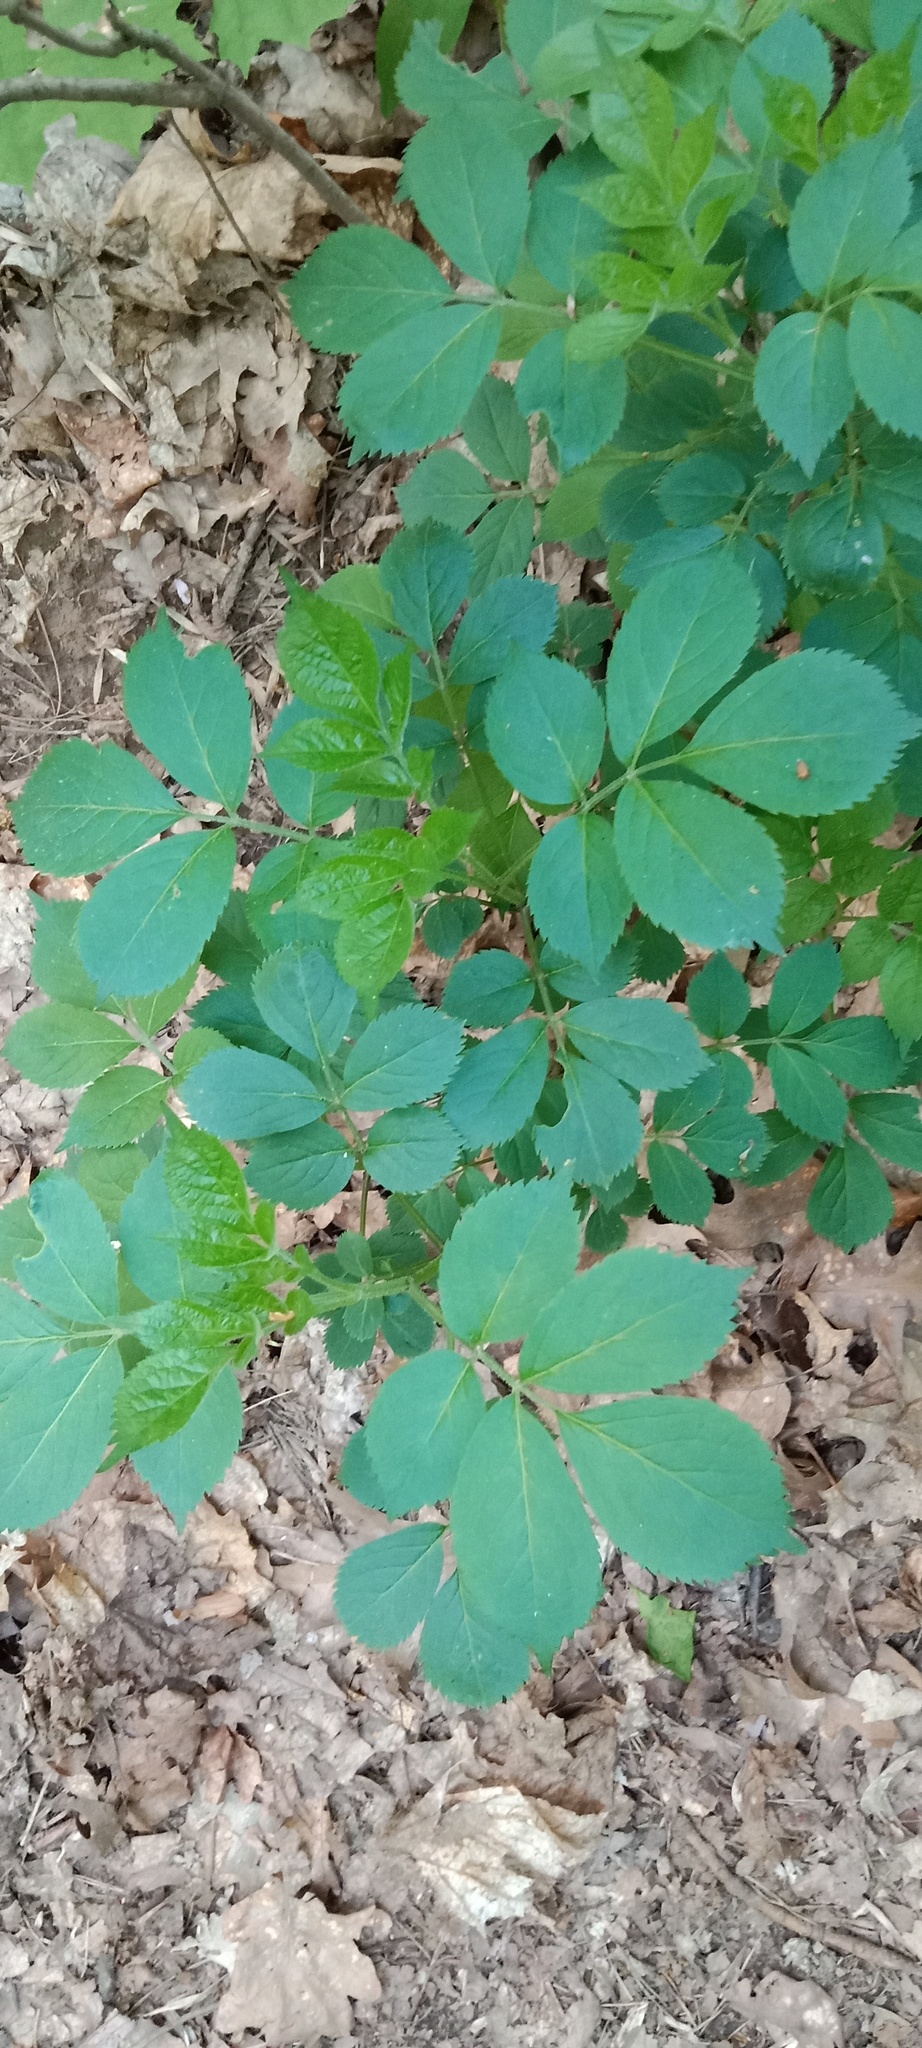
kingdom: Plantae
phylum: Tracheophyta
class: Magnoliopsida
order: Dipsacales
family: Viburnaceae
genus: Sambucus
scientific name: Sambucus nigra
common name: Elder
